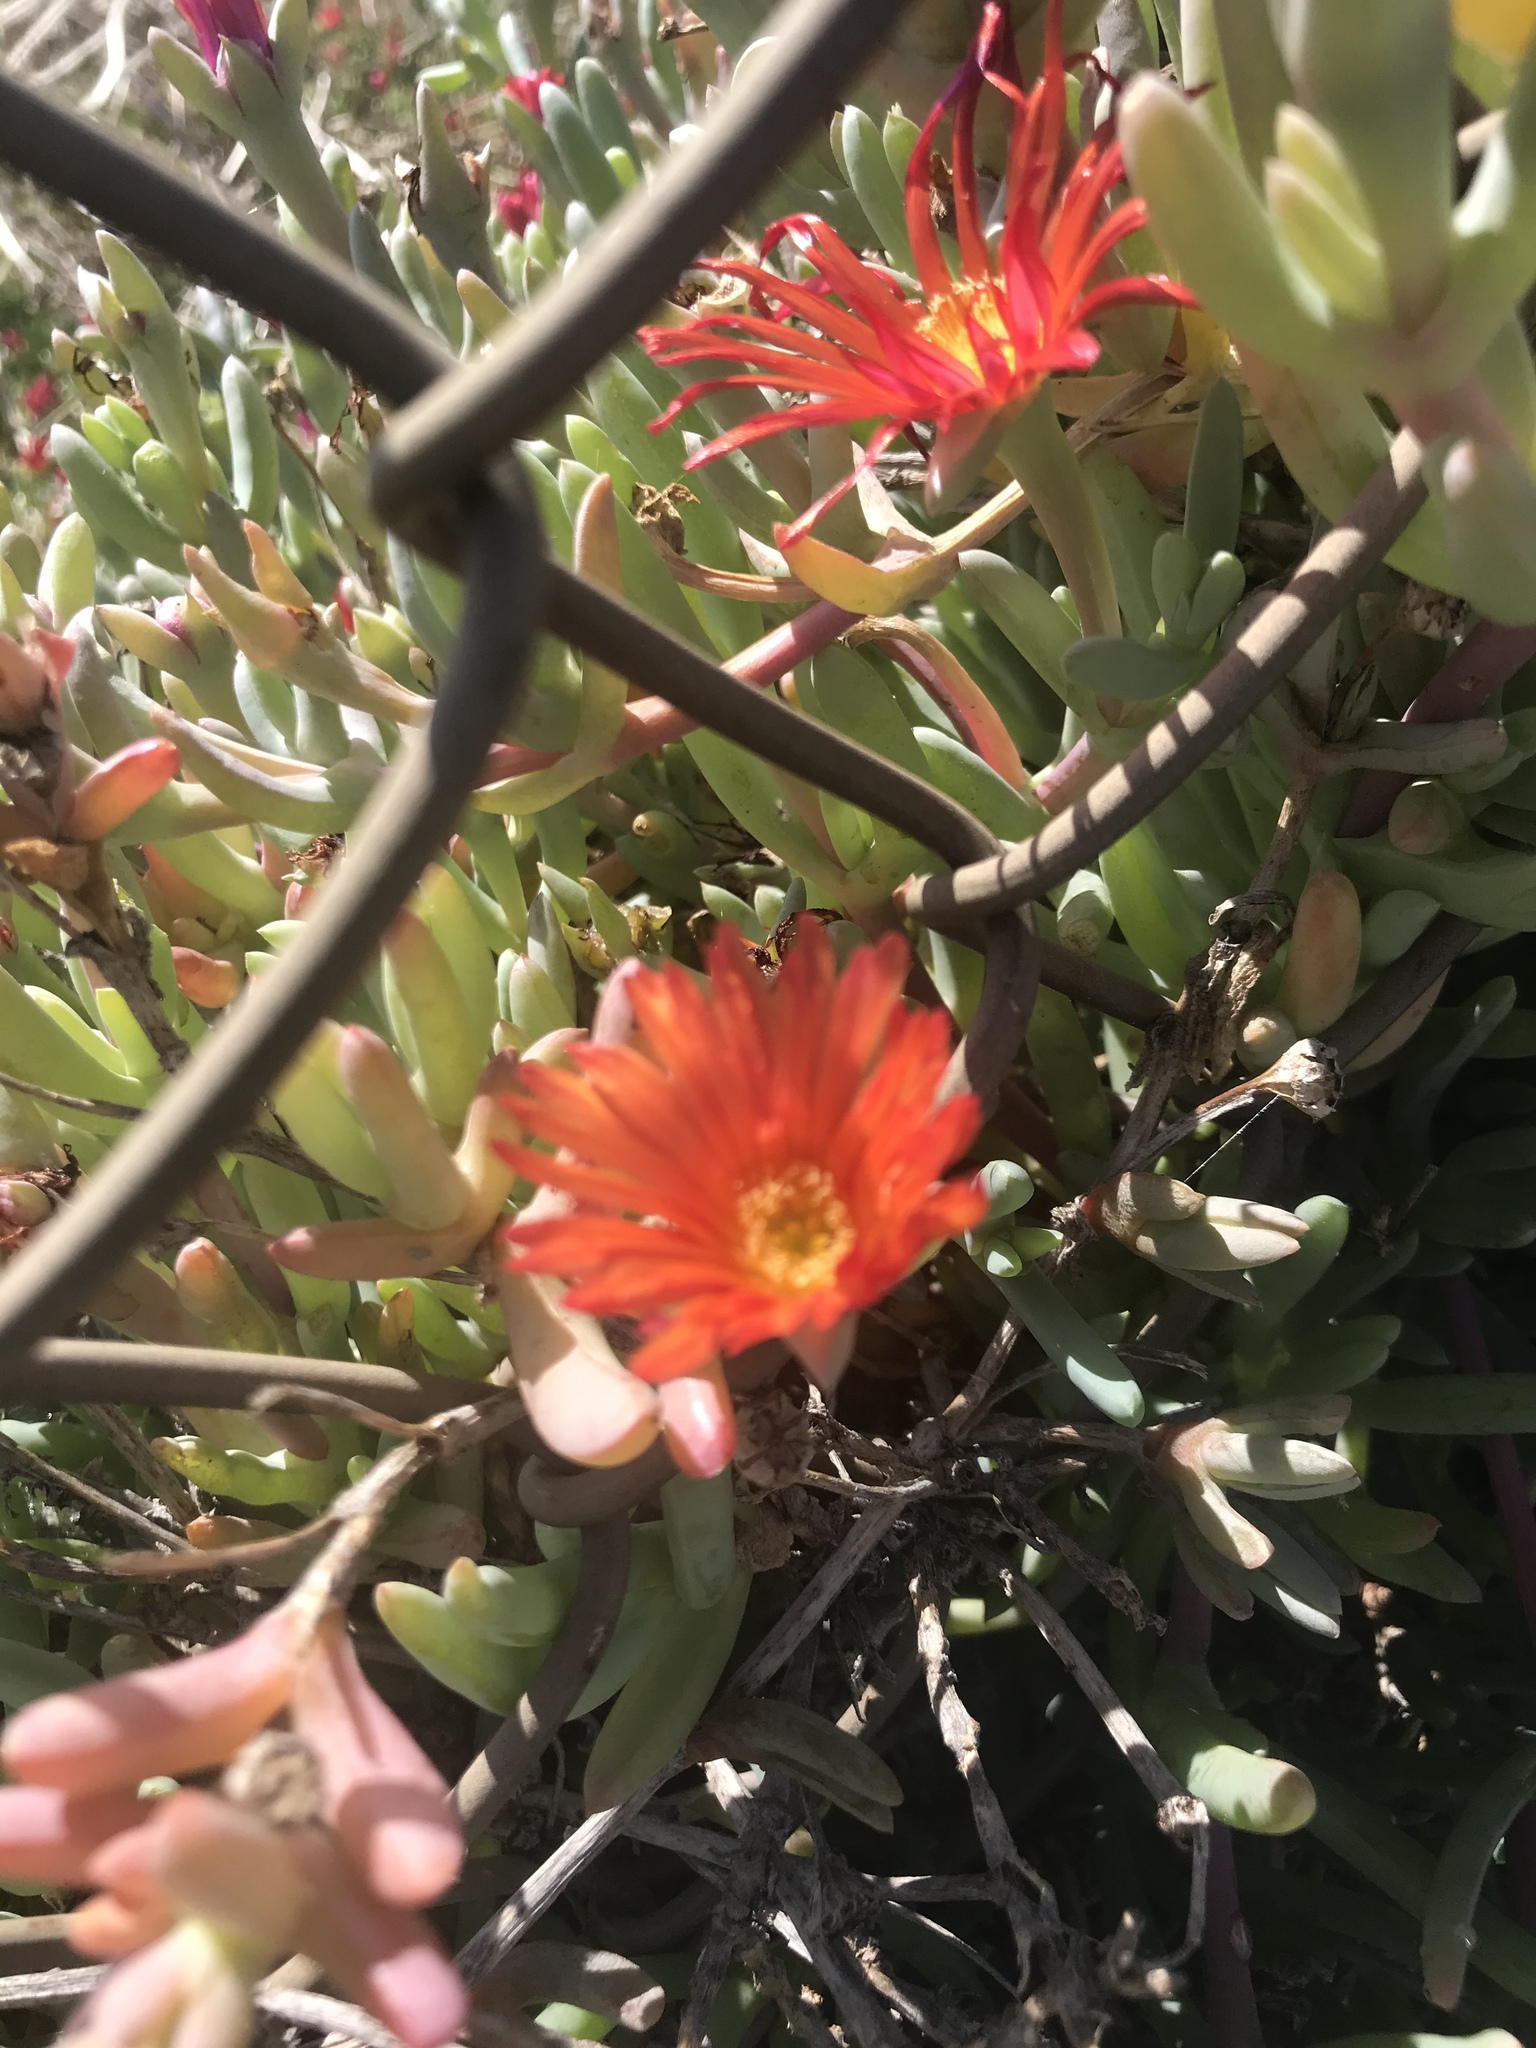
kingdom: Plantae
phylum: Tracheophyta
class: Magnoliopsida
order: Caryophyllales
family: Aizoaceae
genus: Malephora
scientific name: Malephora crocea
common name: Coppery mesemb
